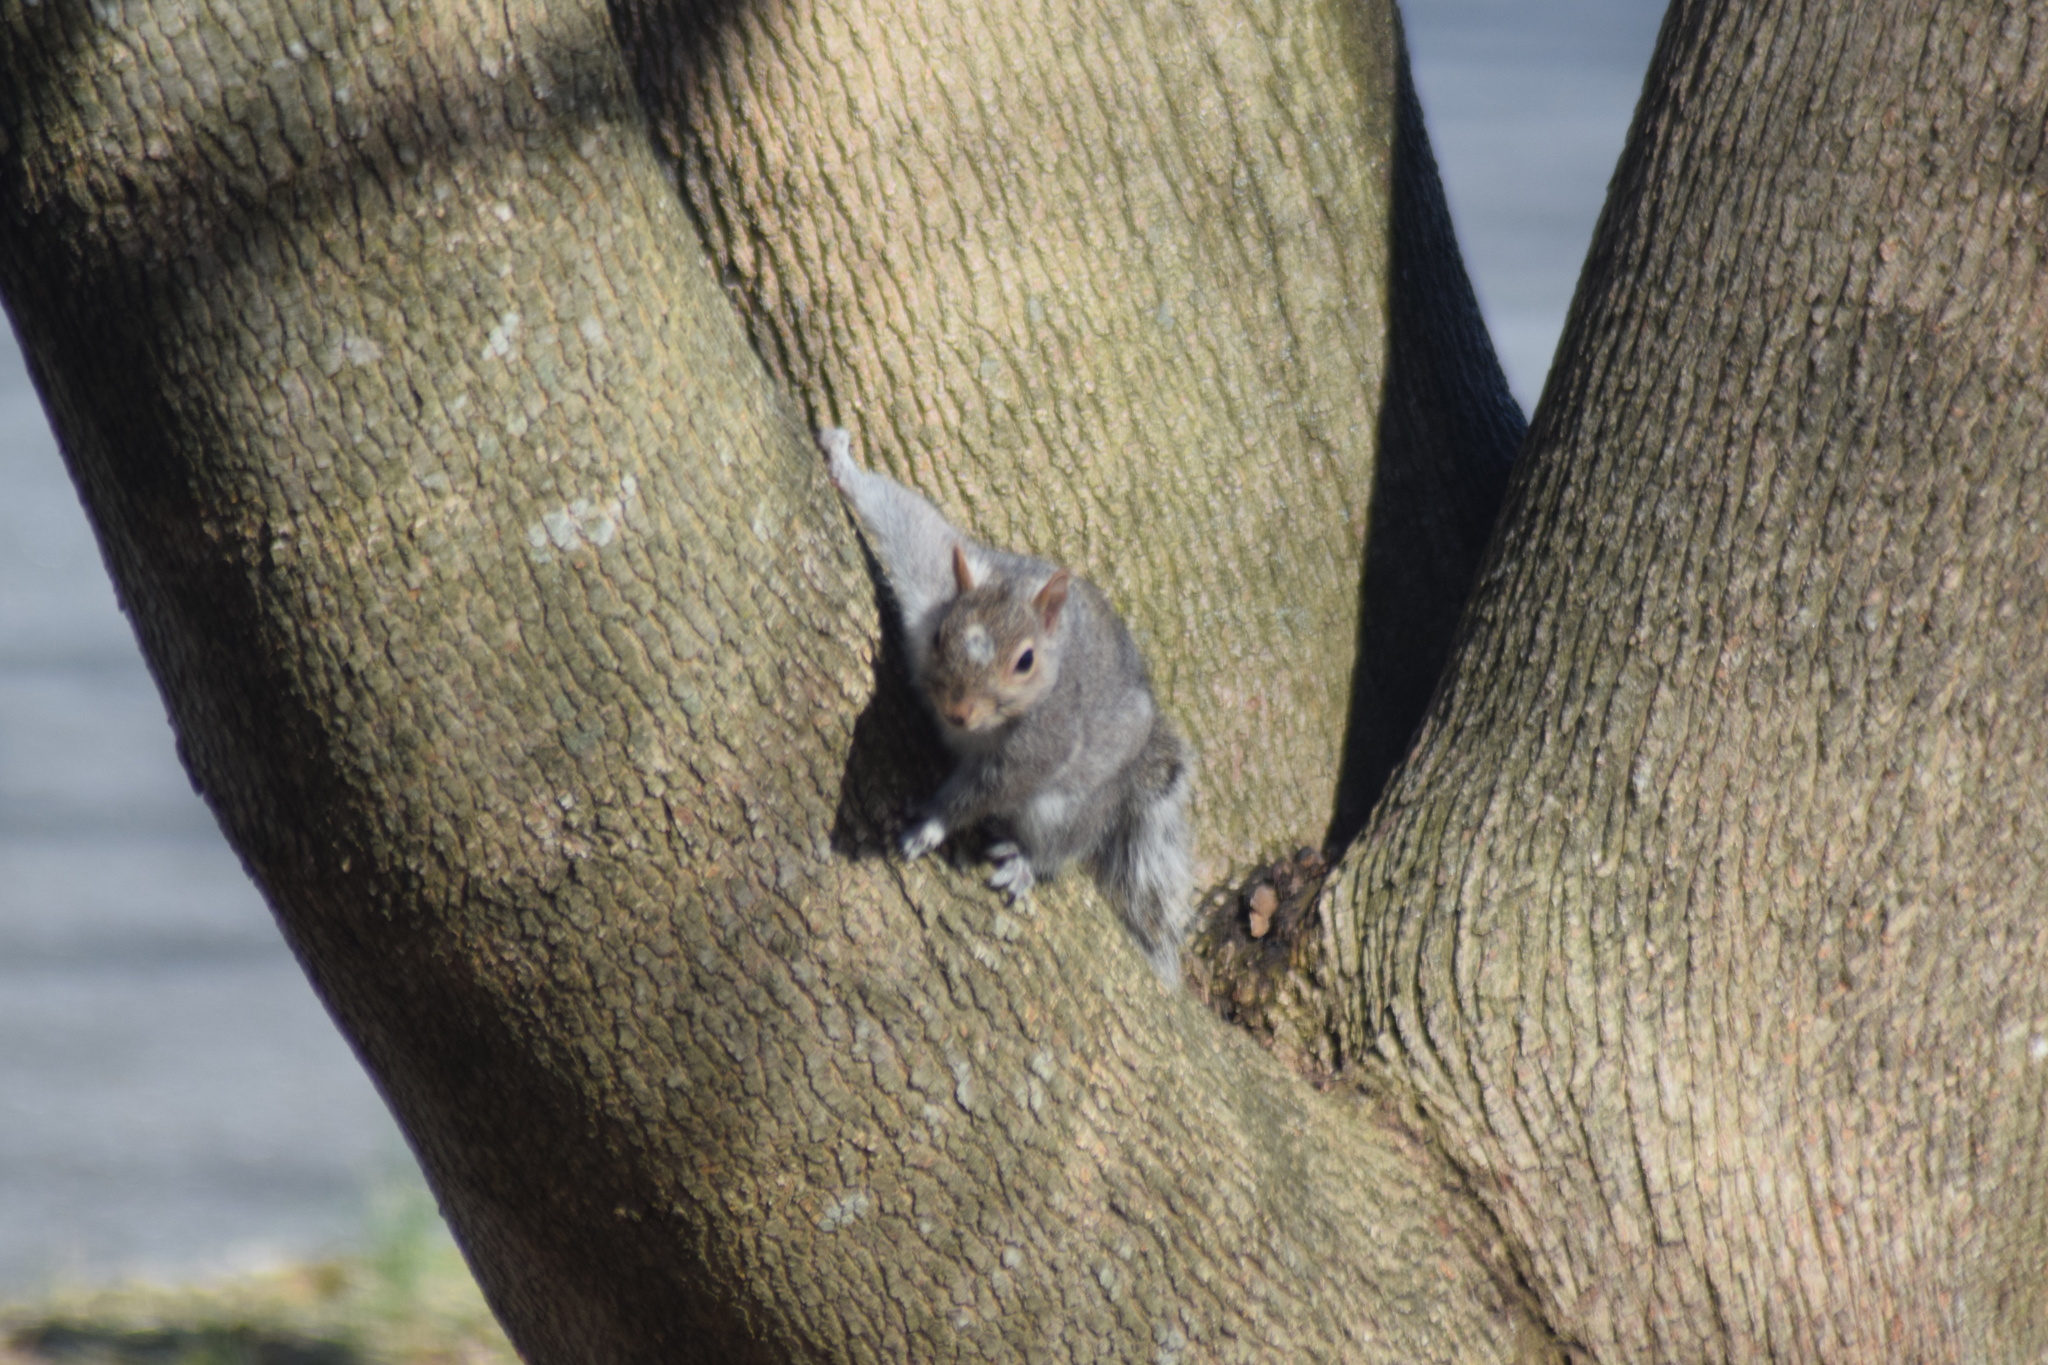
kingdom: Animalia
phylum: Chordata
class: Mammalia
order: Rodentia
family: Sciuridae
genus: Sciurus
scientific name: Sciurus carolinensis
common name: Eastern gray squirrel
